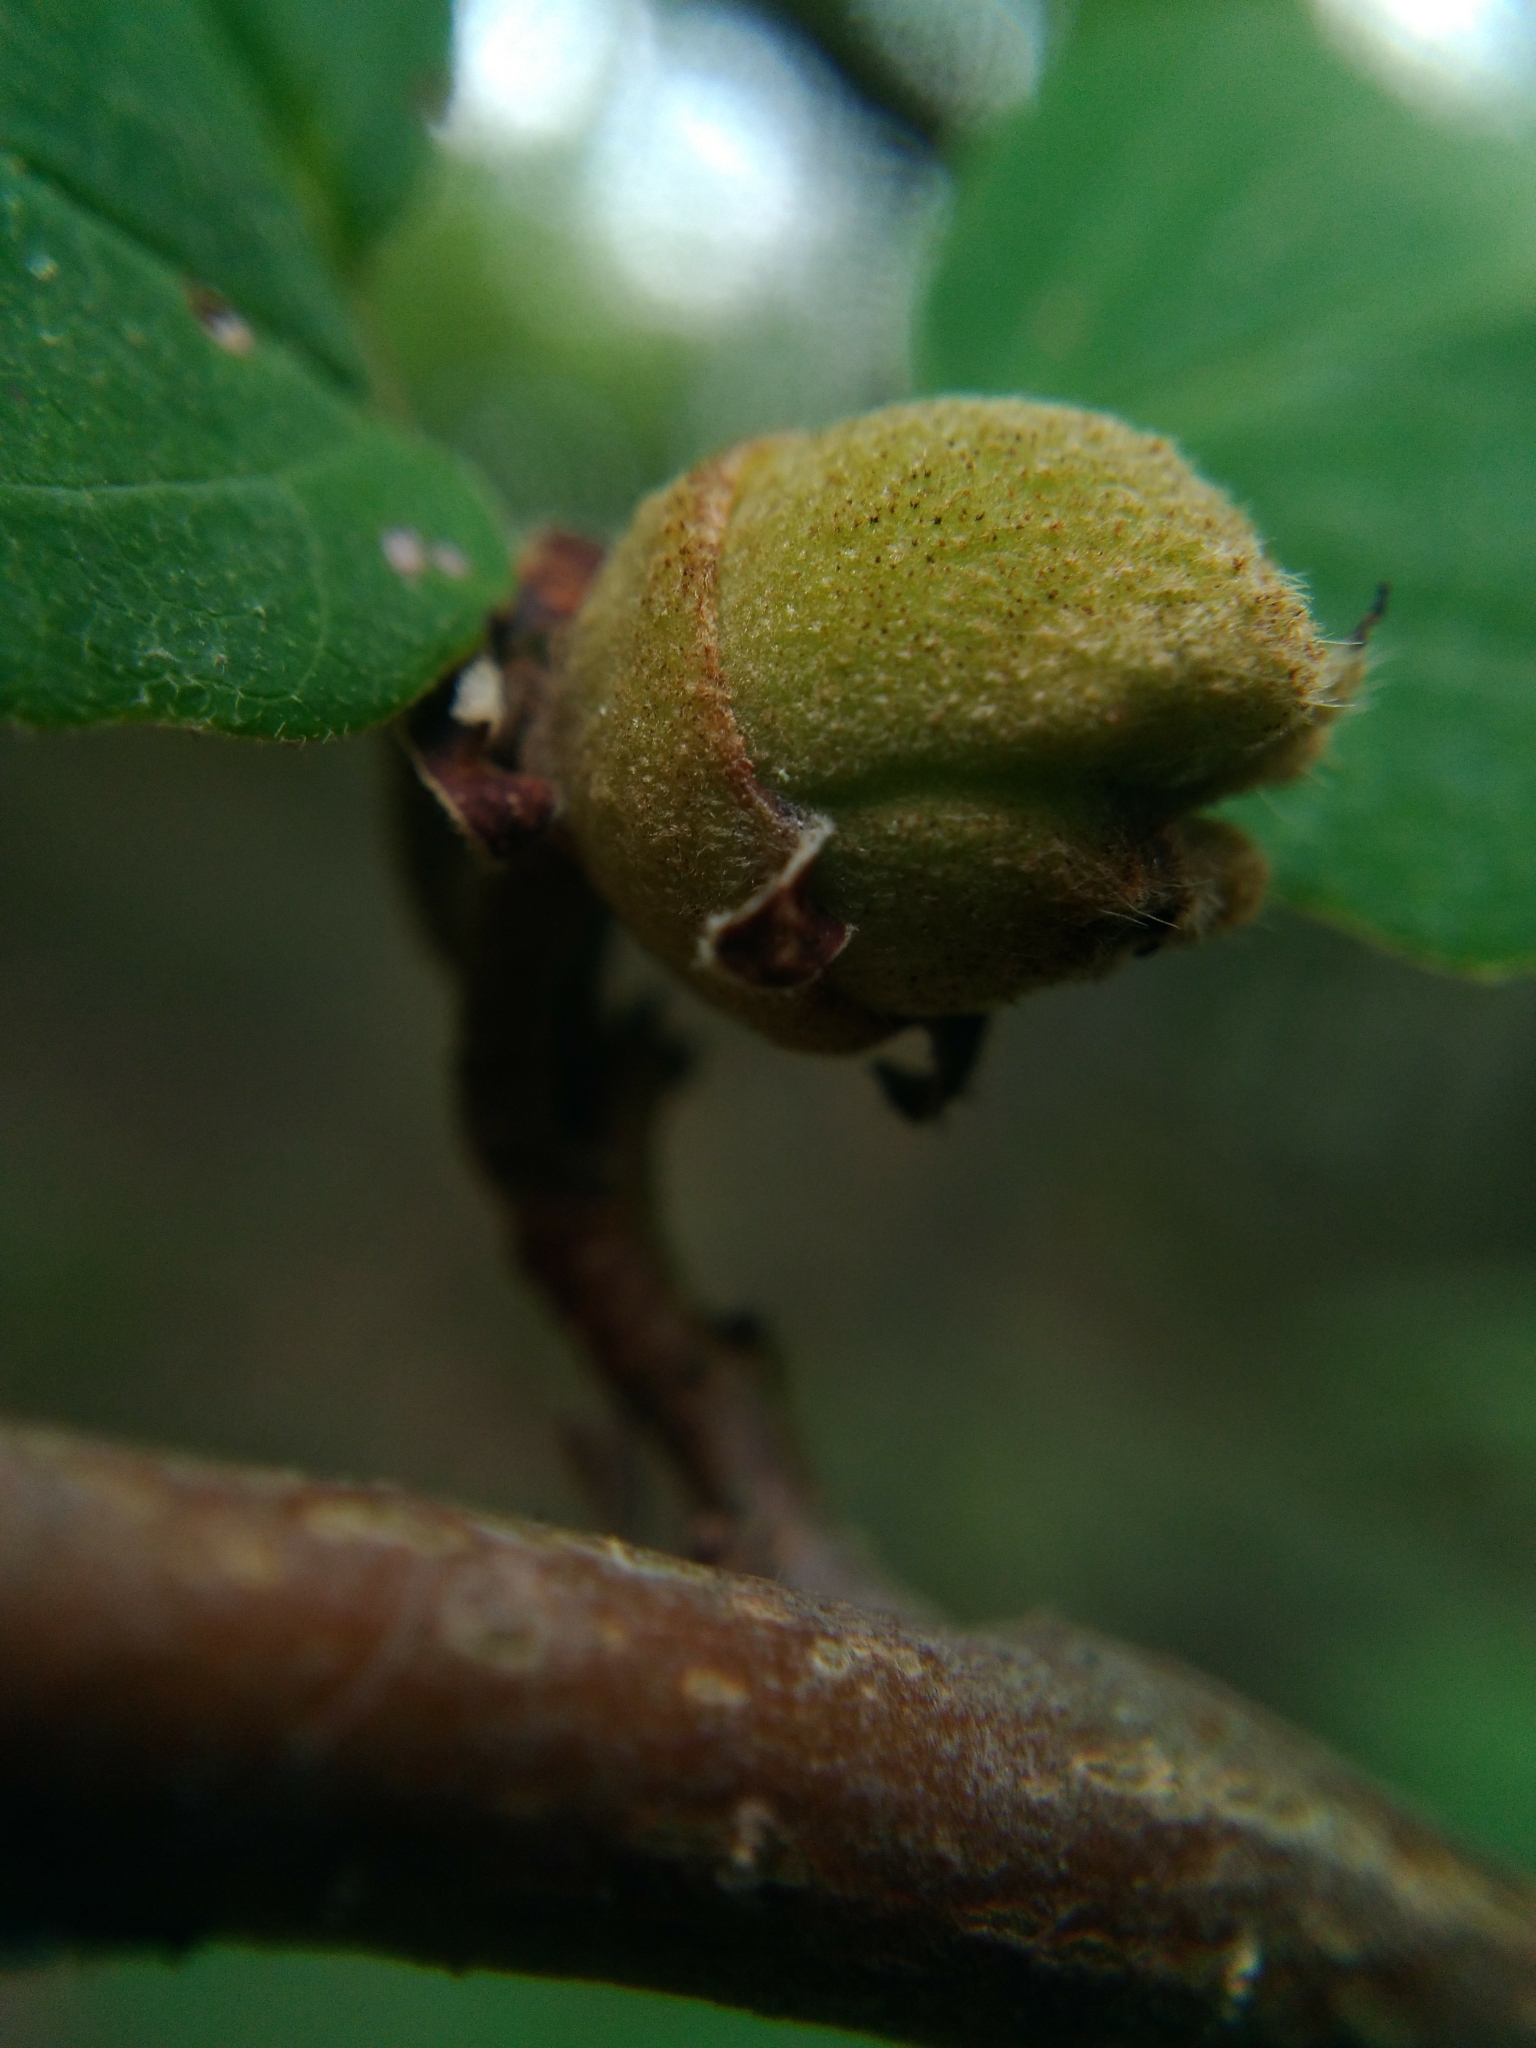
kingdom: Plantae
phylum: Tracheophyta
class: Magnoliopsida
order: Saxifragales
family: Hamamelidaceae
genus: Hamamelis
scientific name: Hamamelis virginiana
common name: Witch-hazel
